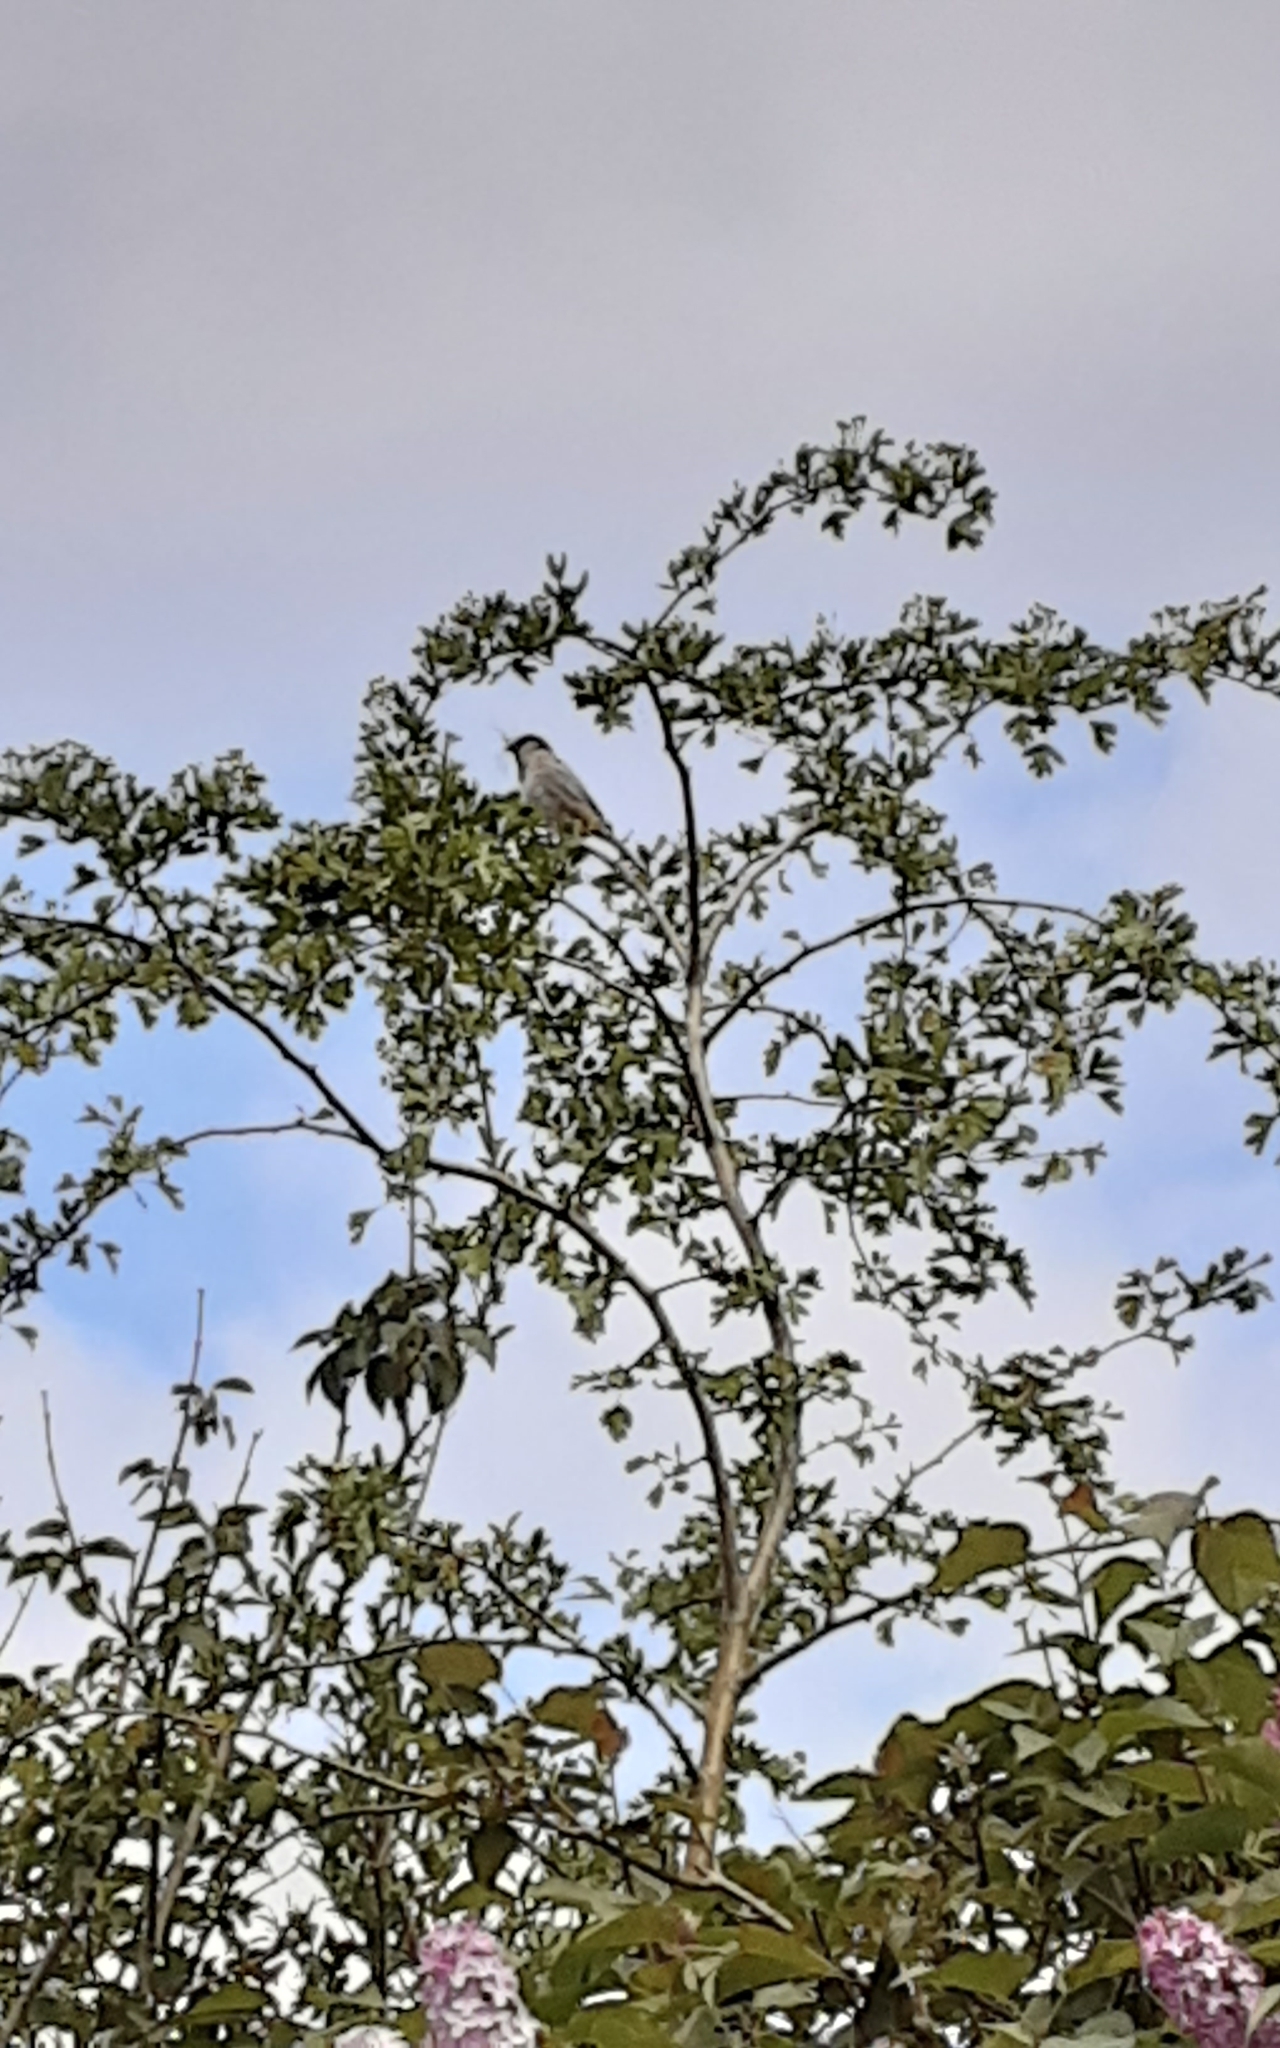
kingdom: Animalia
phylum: Chordata
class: Aves
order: Passeriformes
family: Passeridae
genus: Passer
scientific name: Passer domesticus
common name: House sparrow
